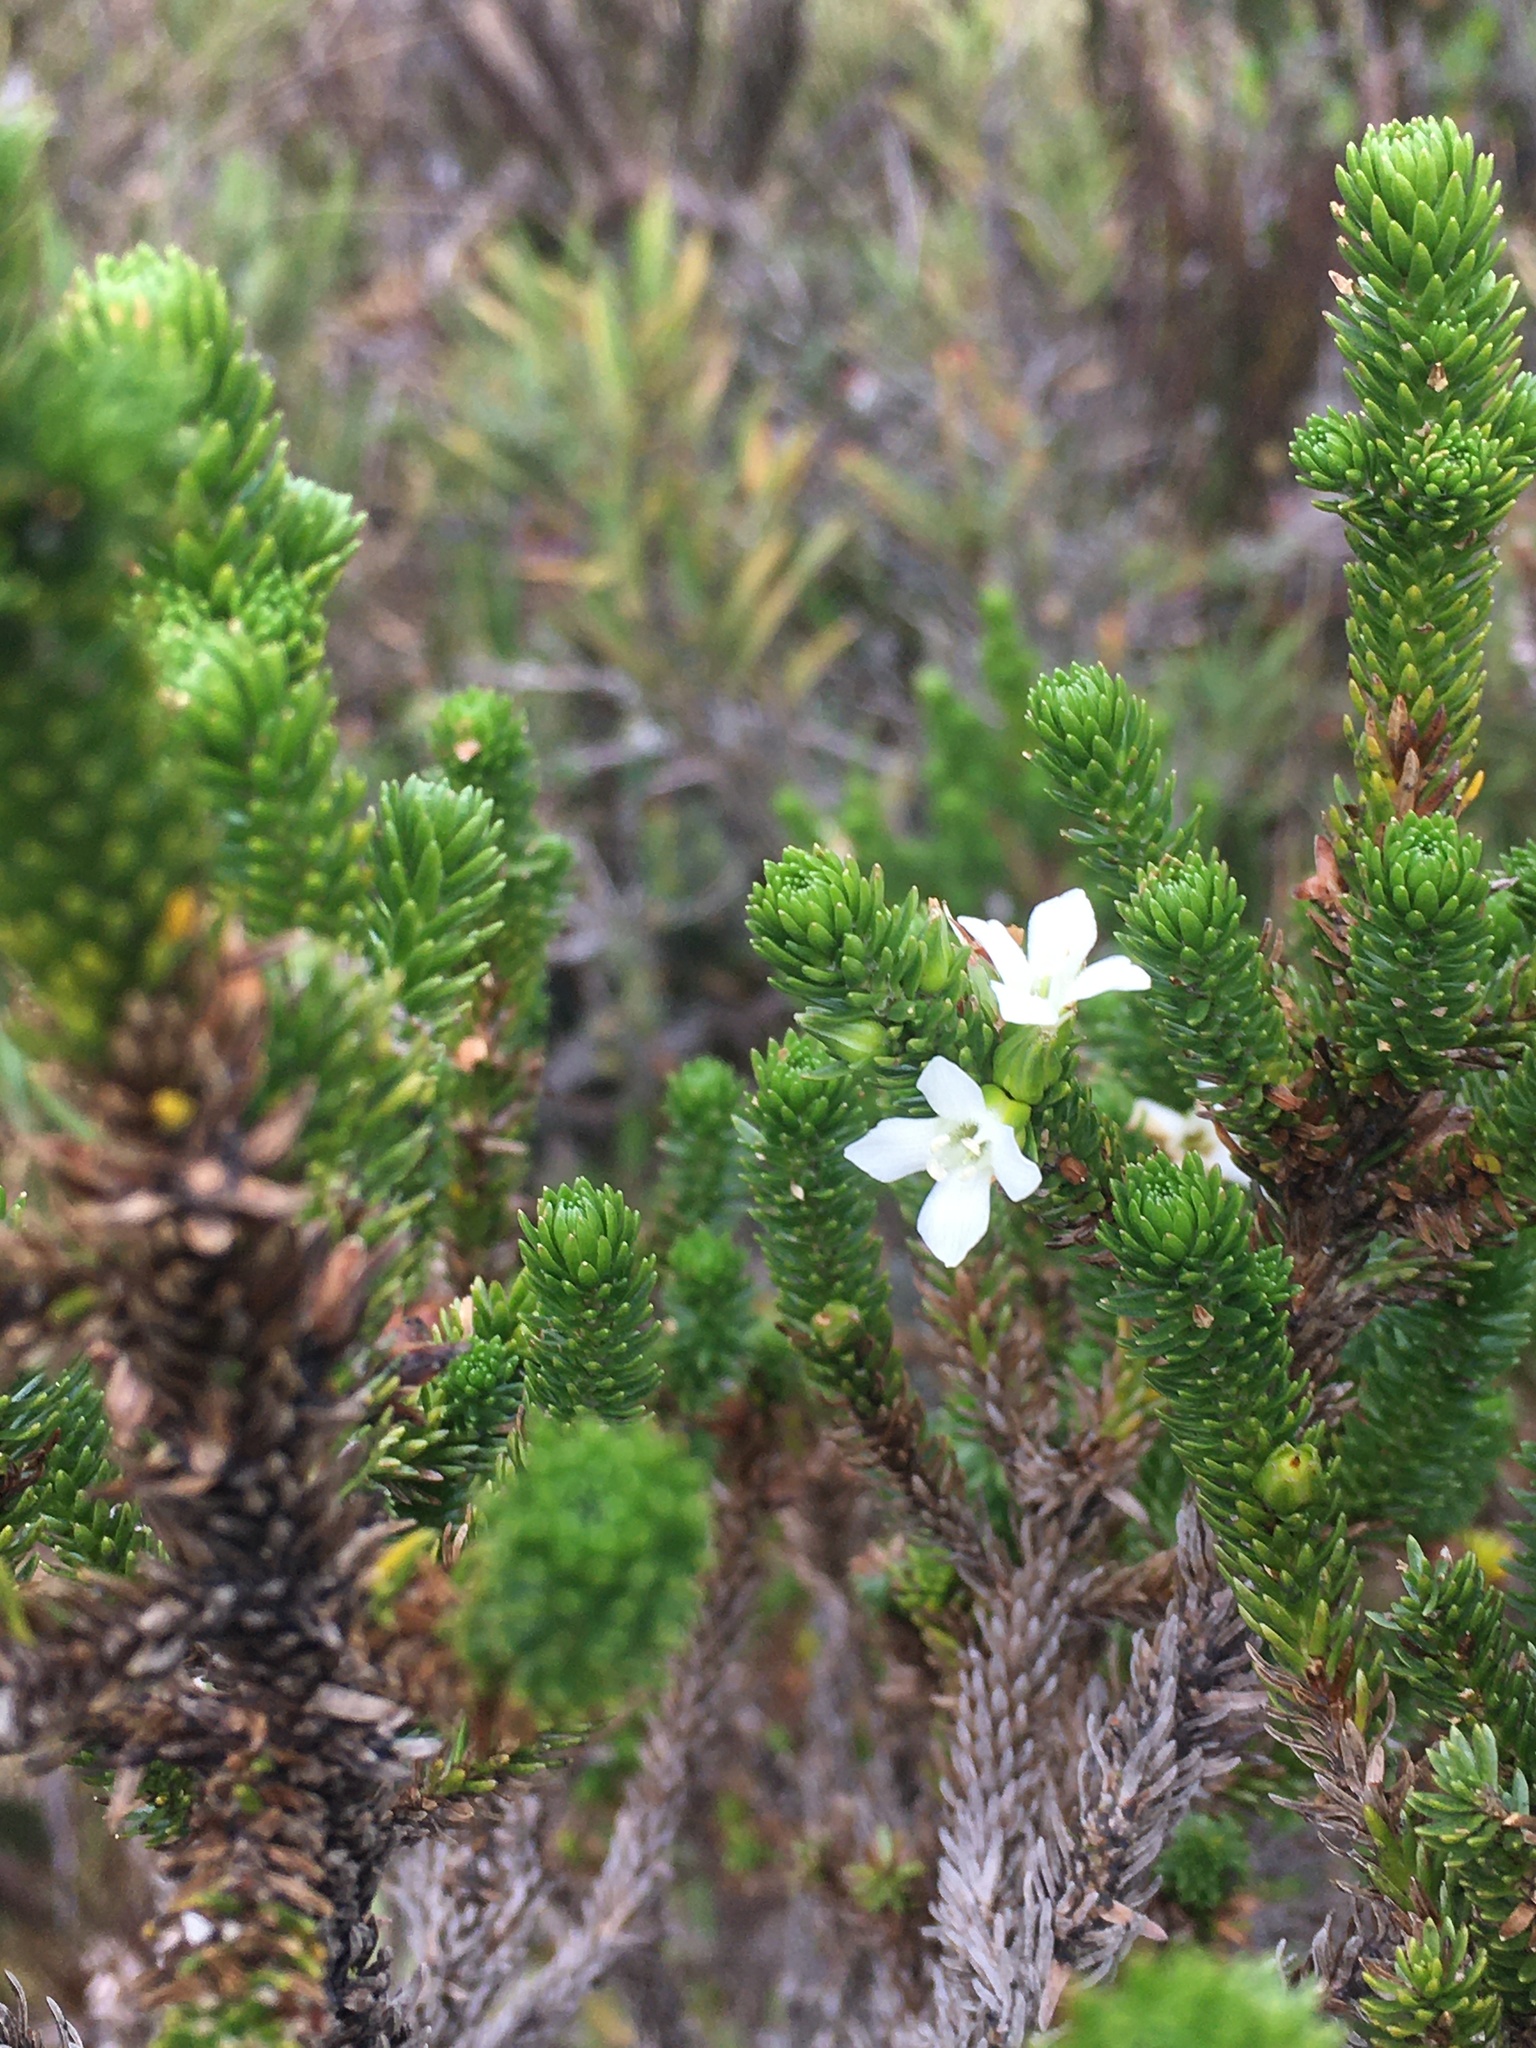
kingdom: Plantae
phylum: Tracheophyta
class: Magnoliopsida
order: Lamiales
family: Plantaginaceae
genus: Aragoa
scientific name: Aragoa abietina
